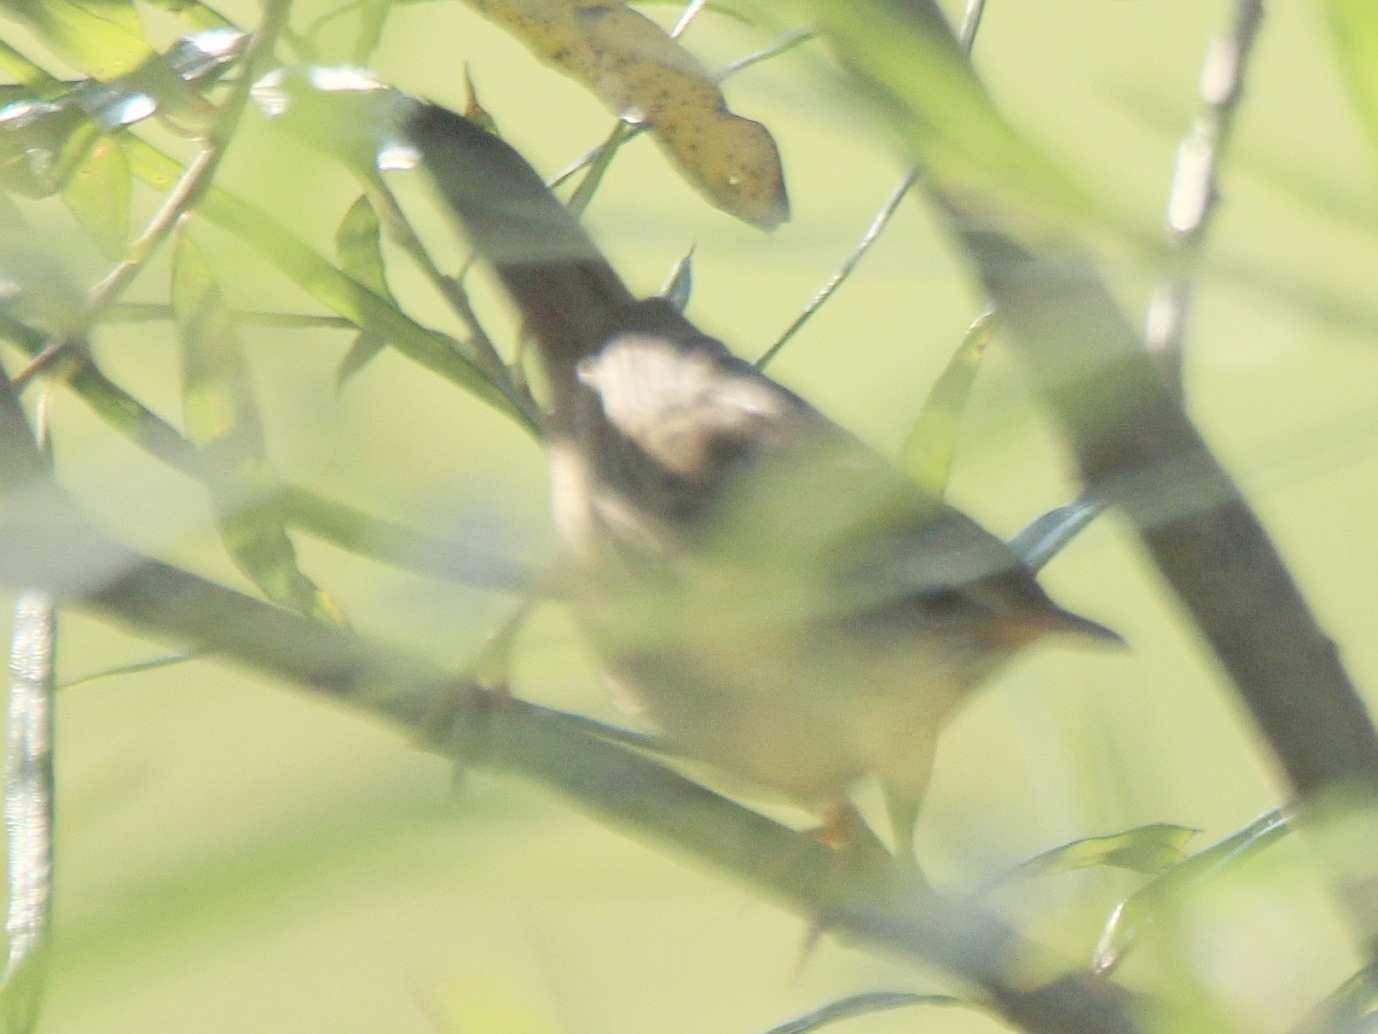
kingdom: Animalia
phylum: Chordata
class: Aves
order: Passeriformes
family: Locustellidae
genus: Locustella
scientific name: Locustella certhiola
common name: Pallas's grasshopper warbler
